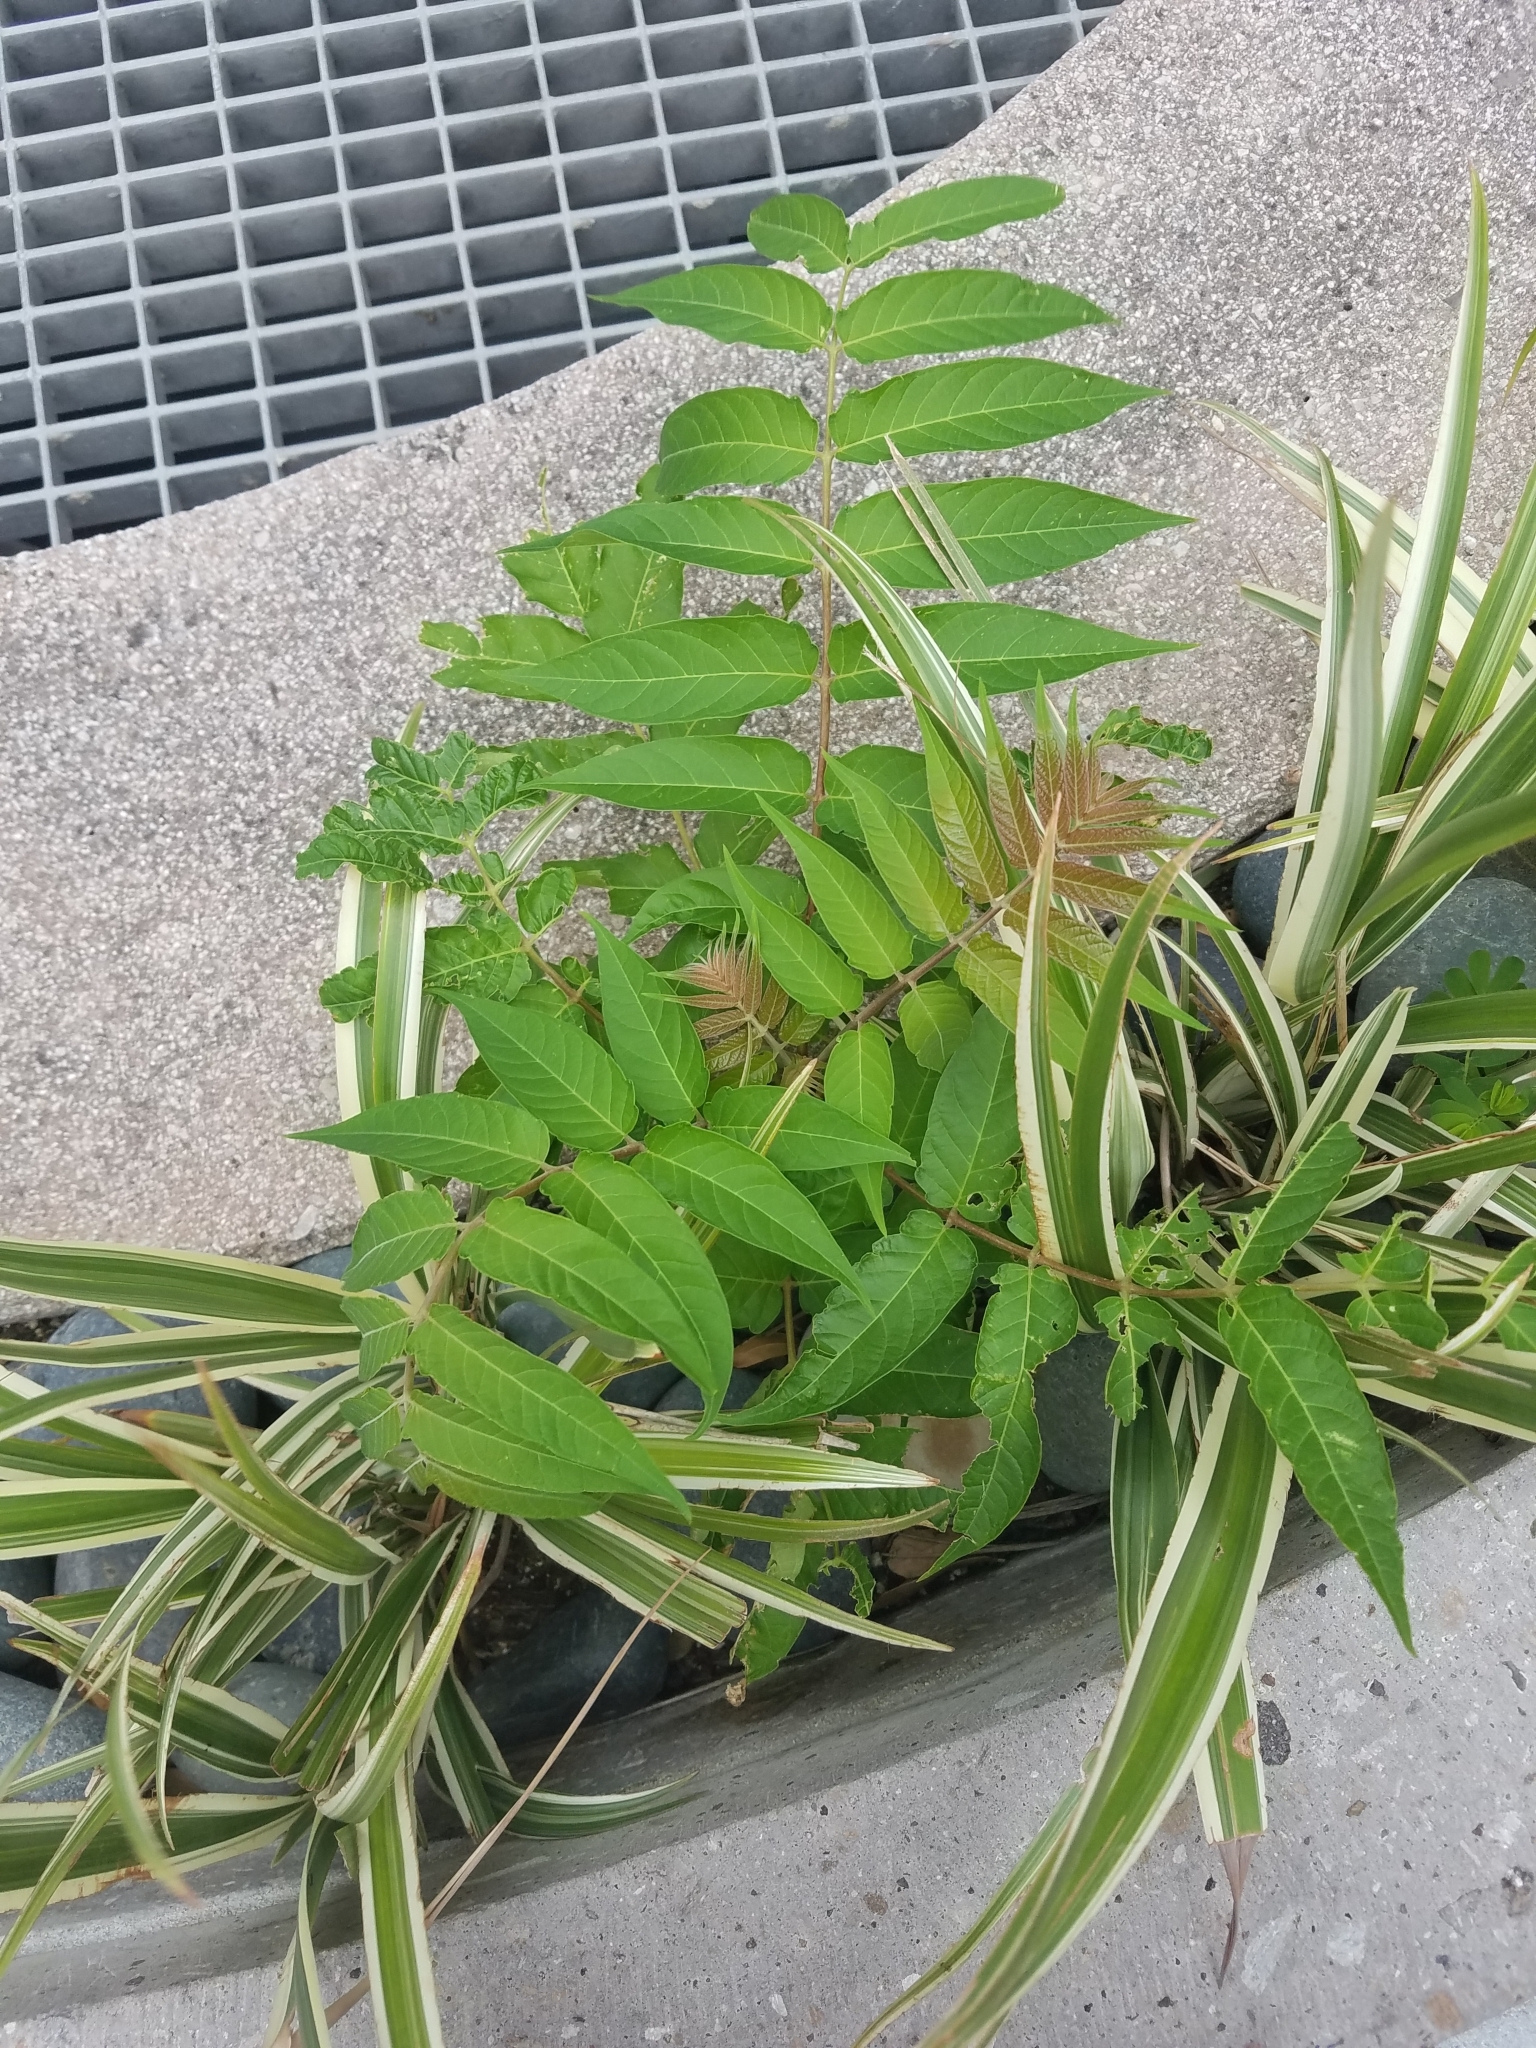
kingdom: Plantae
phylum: Tracheophyta
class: Magnoliopsida
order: Sapindales
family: Simaroubaceae
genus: Ailanthus
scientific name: Ailanthus altissima
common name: Tree-of-heaven
